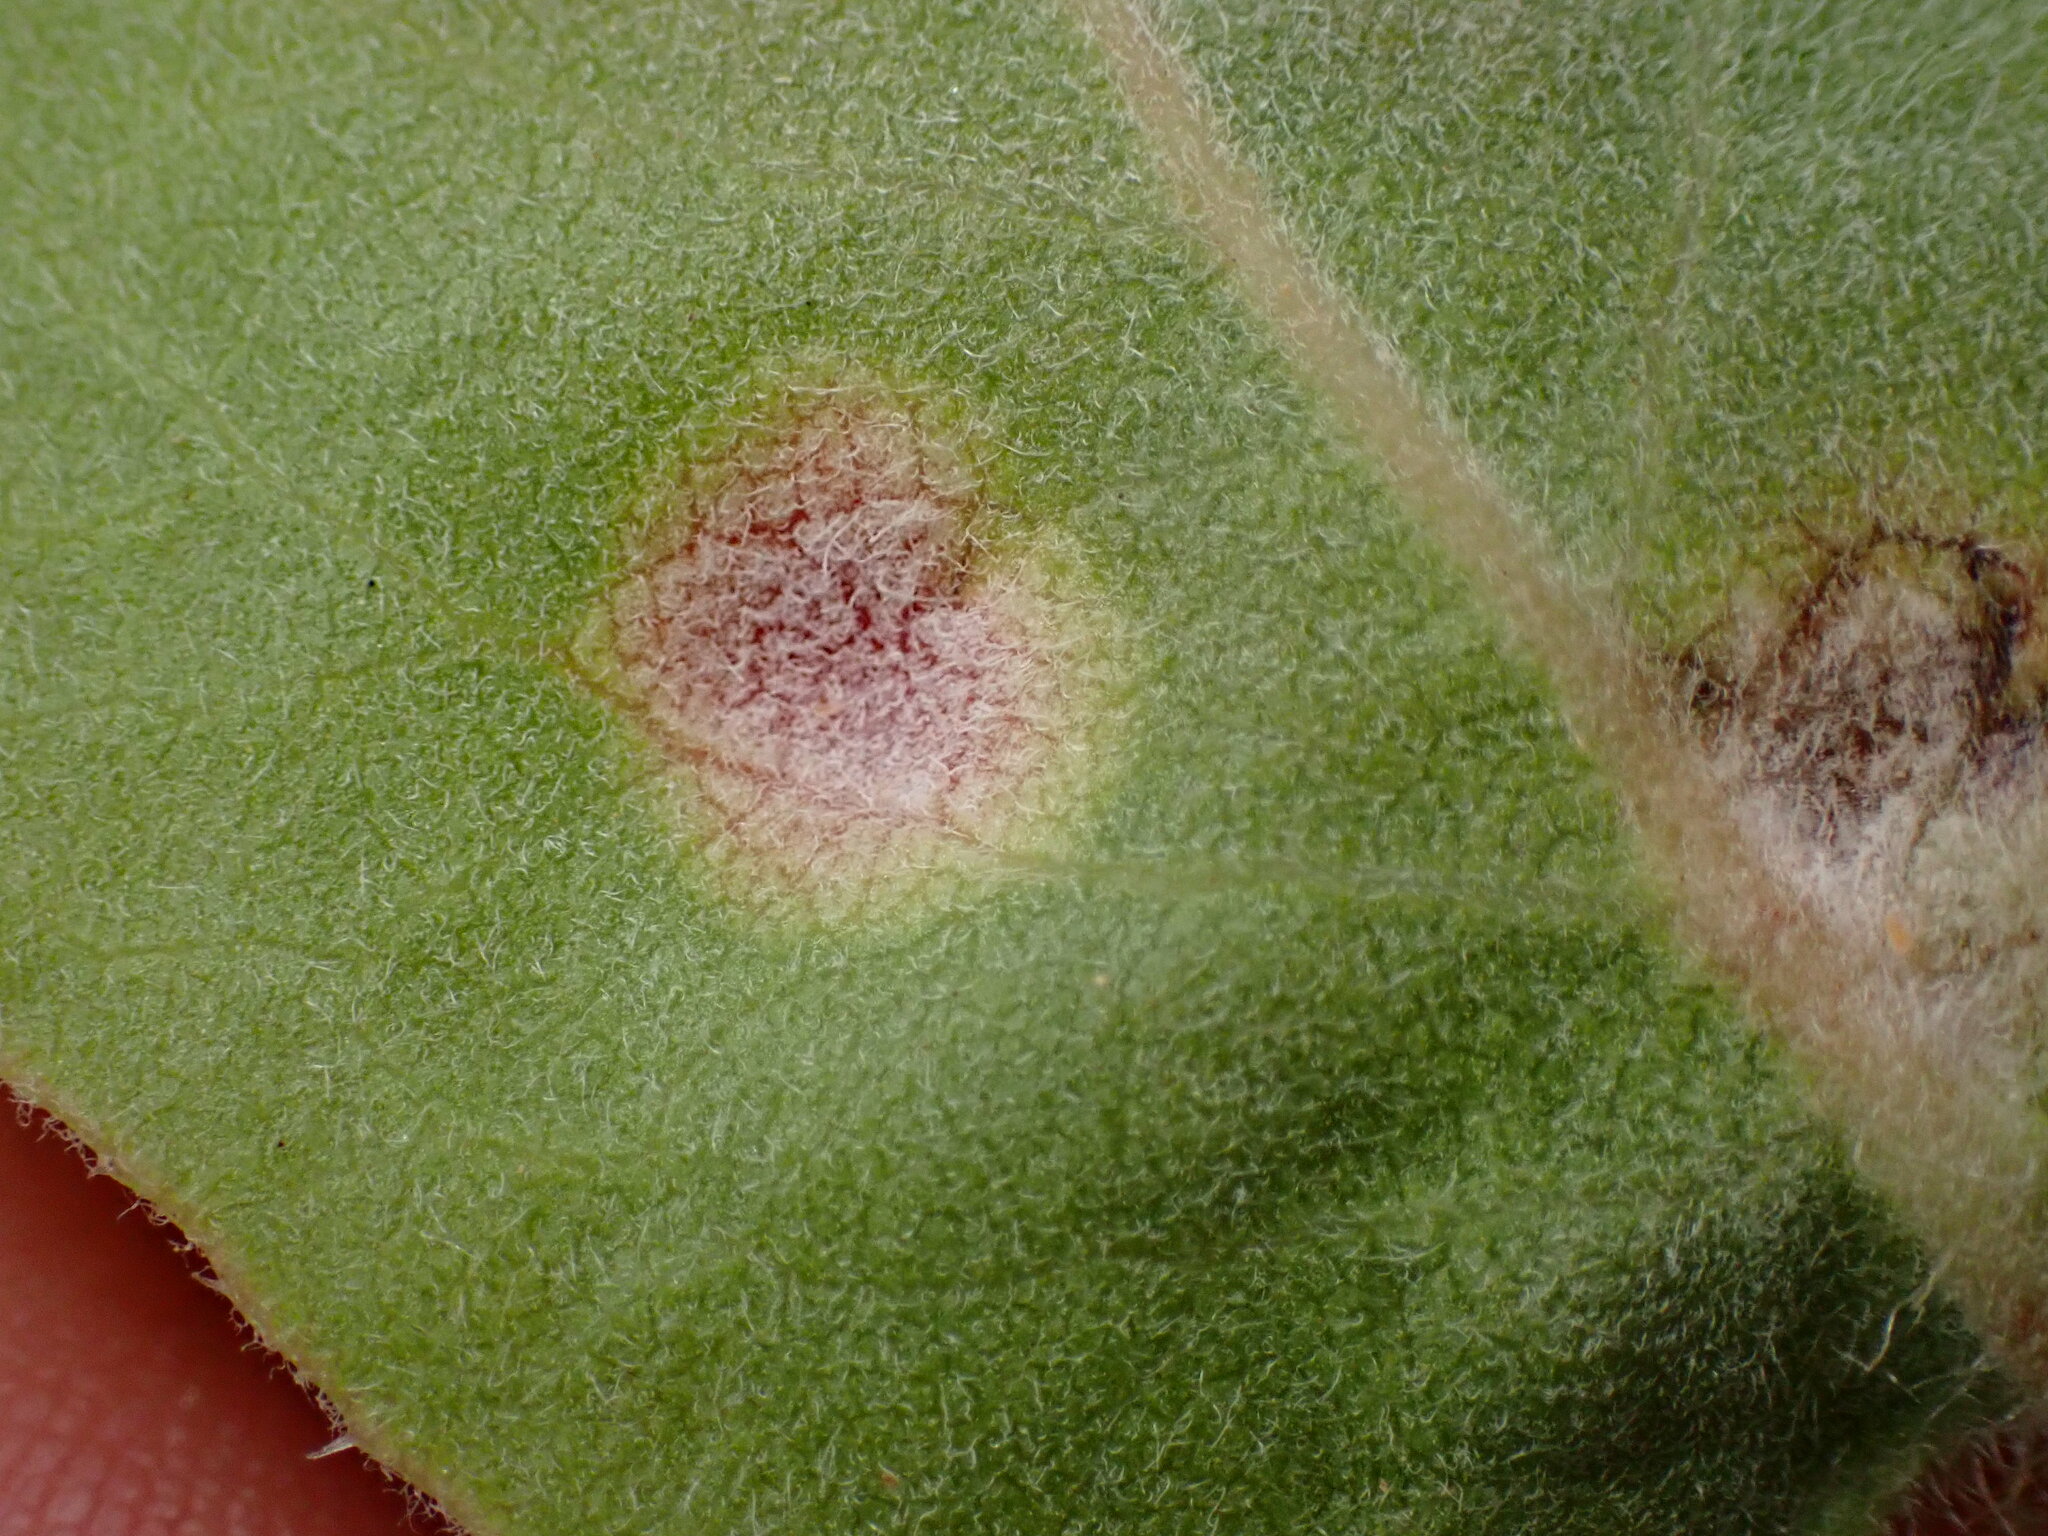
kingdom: Fungi
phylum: Basidiomycota
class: Exobasidiomycetes
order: Exobasidiales
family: Exobasidiaceae
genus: Exobasidium
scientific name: Exobasidium arctostaphyli
